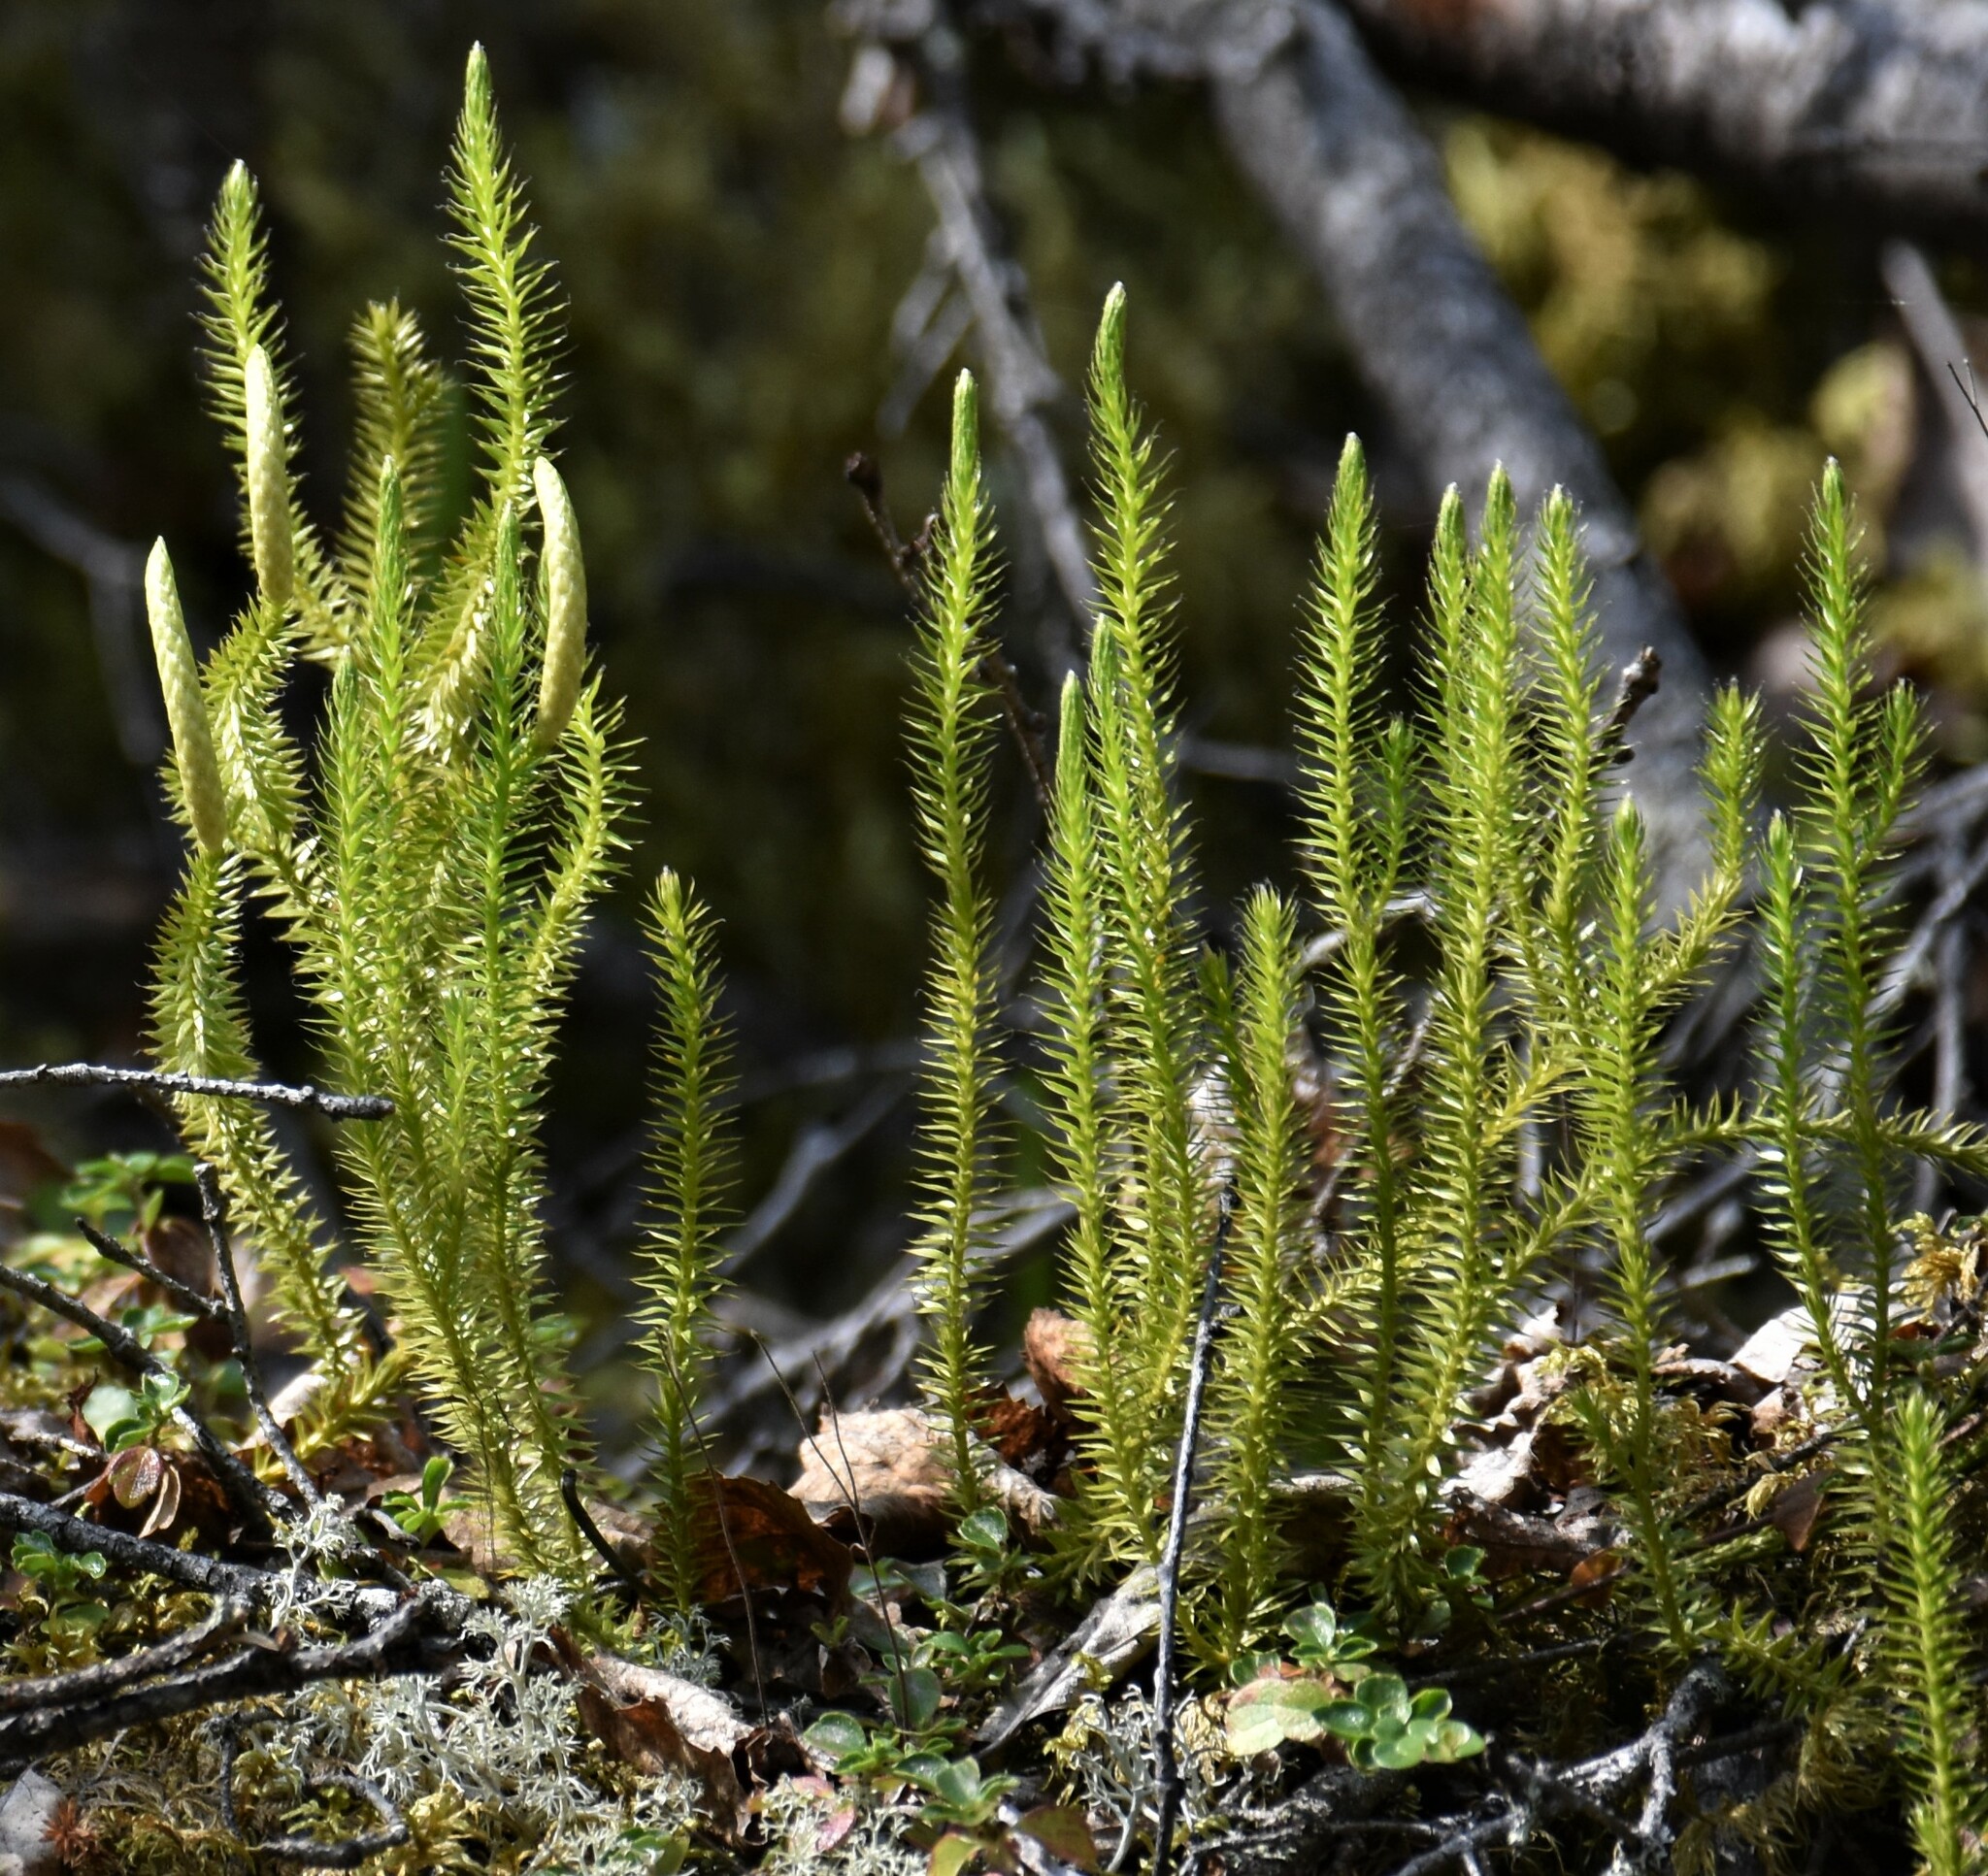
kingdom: Plantae
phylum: Tracheophyta
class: Lycopodiopsida
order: Lycopodiales
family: Lycopodiaceae
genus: Spinulum
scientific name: Spinulum annotinum
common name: Interrupted club-moss
